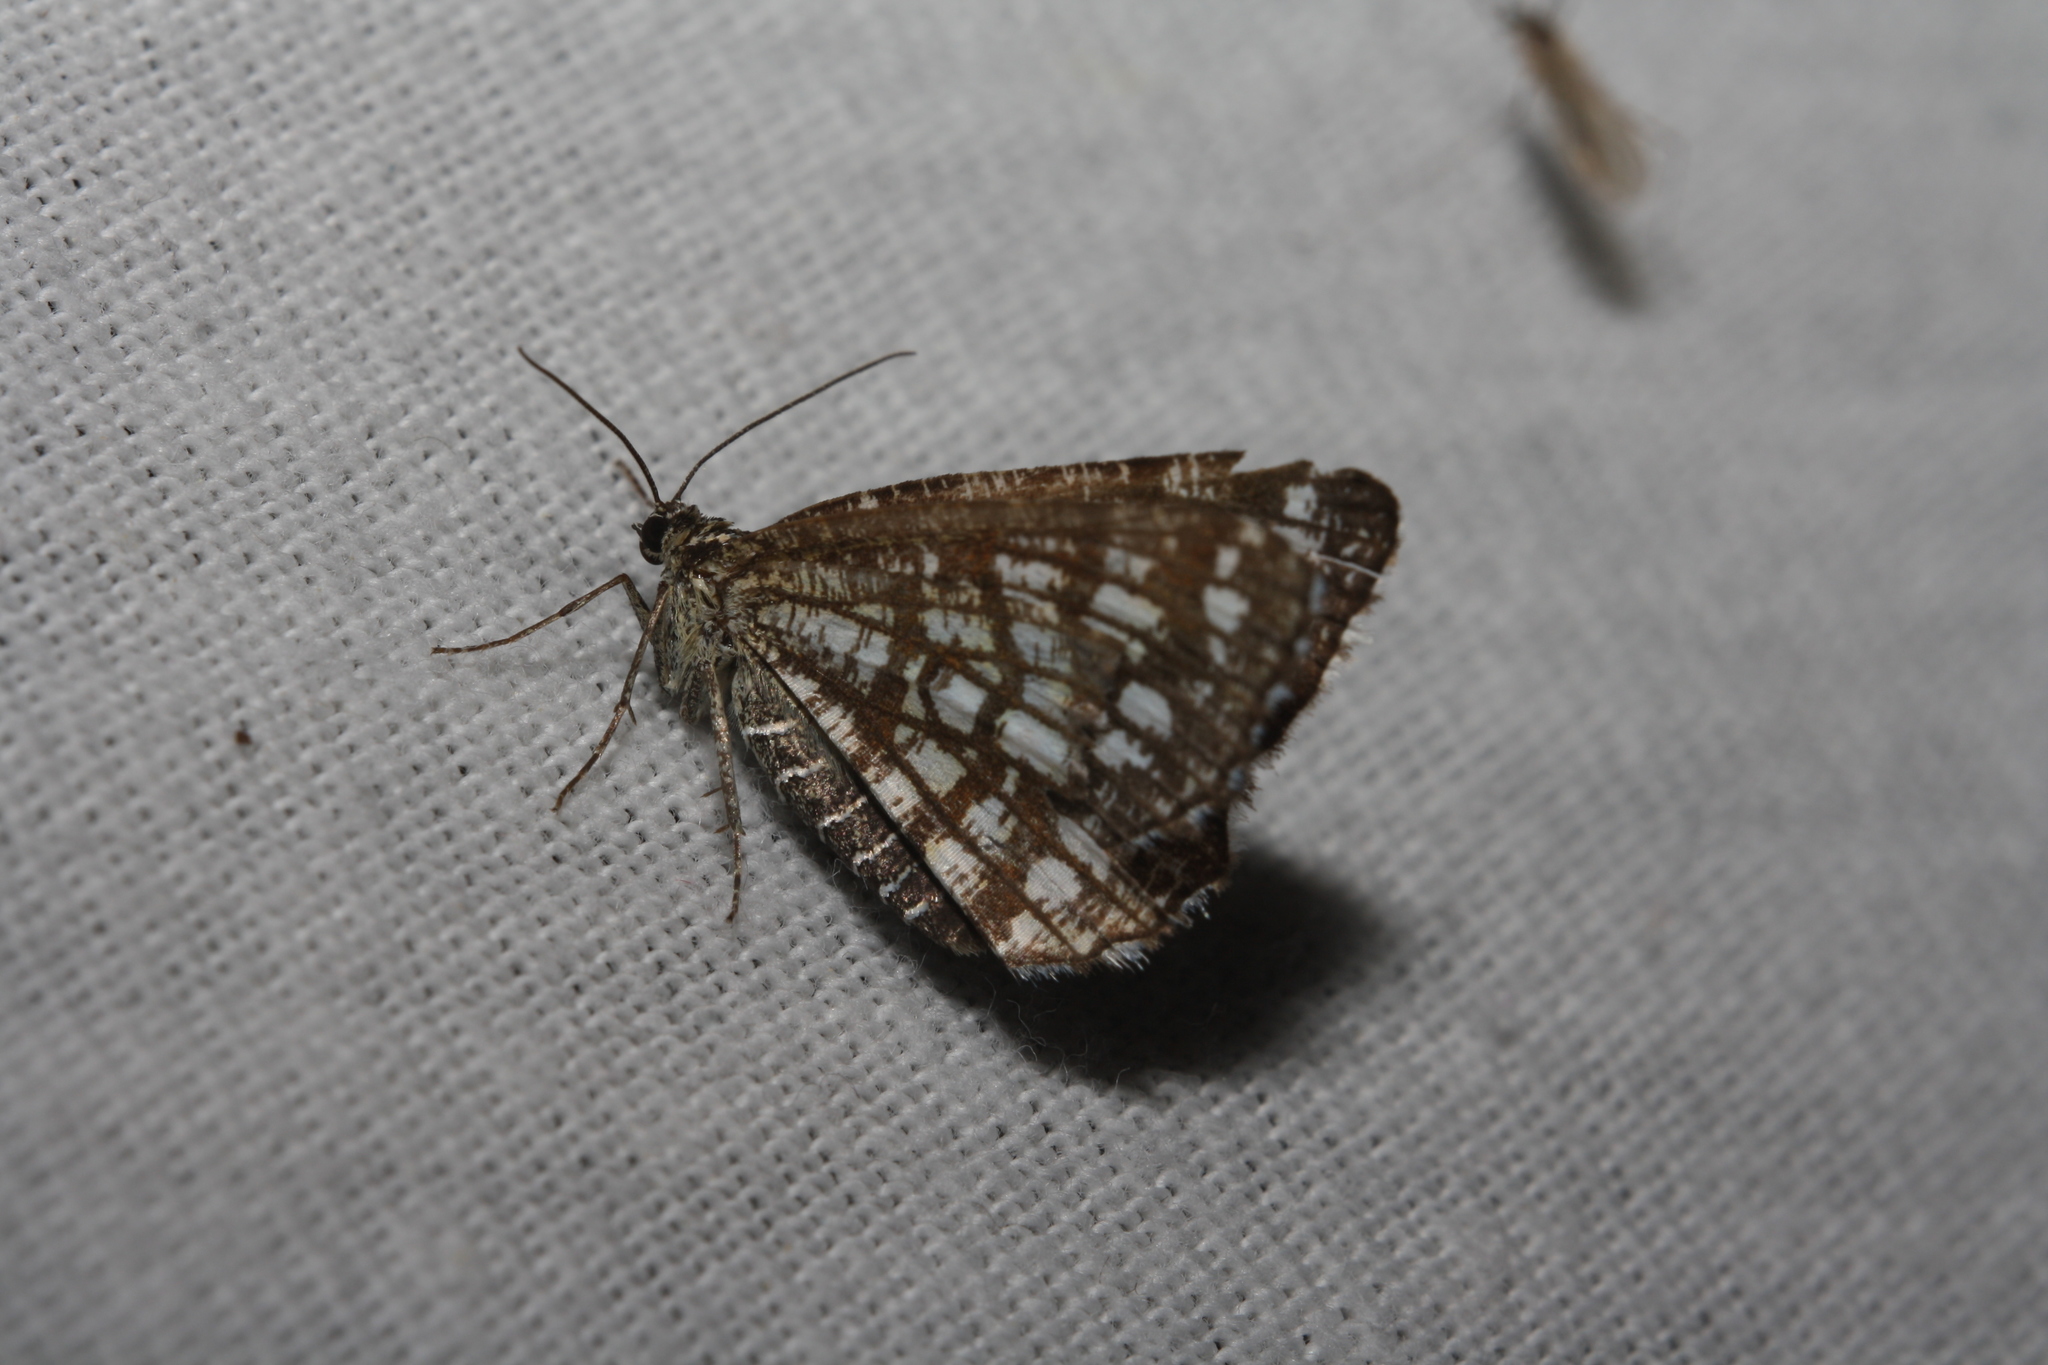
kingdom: Animalia
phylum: Arthropoda
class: Insecta
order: Lepidoptera
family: Geometridae
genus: Chiasmia
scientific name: Chiasmia clathrata
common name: Latticed heath
